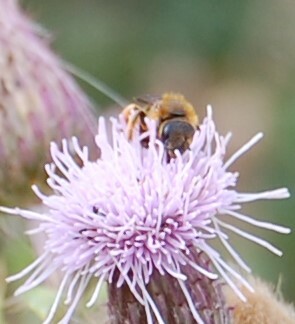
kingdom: Animalia
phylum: Arthropoda
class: Insecta
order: Hymenoptera
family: Halictidae
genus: Halictus
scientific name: Halictus rubicundus
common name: Orange-legged furrow bee
